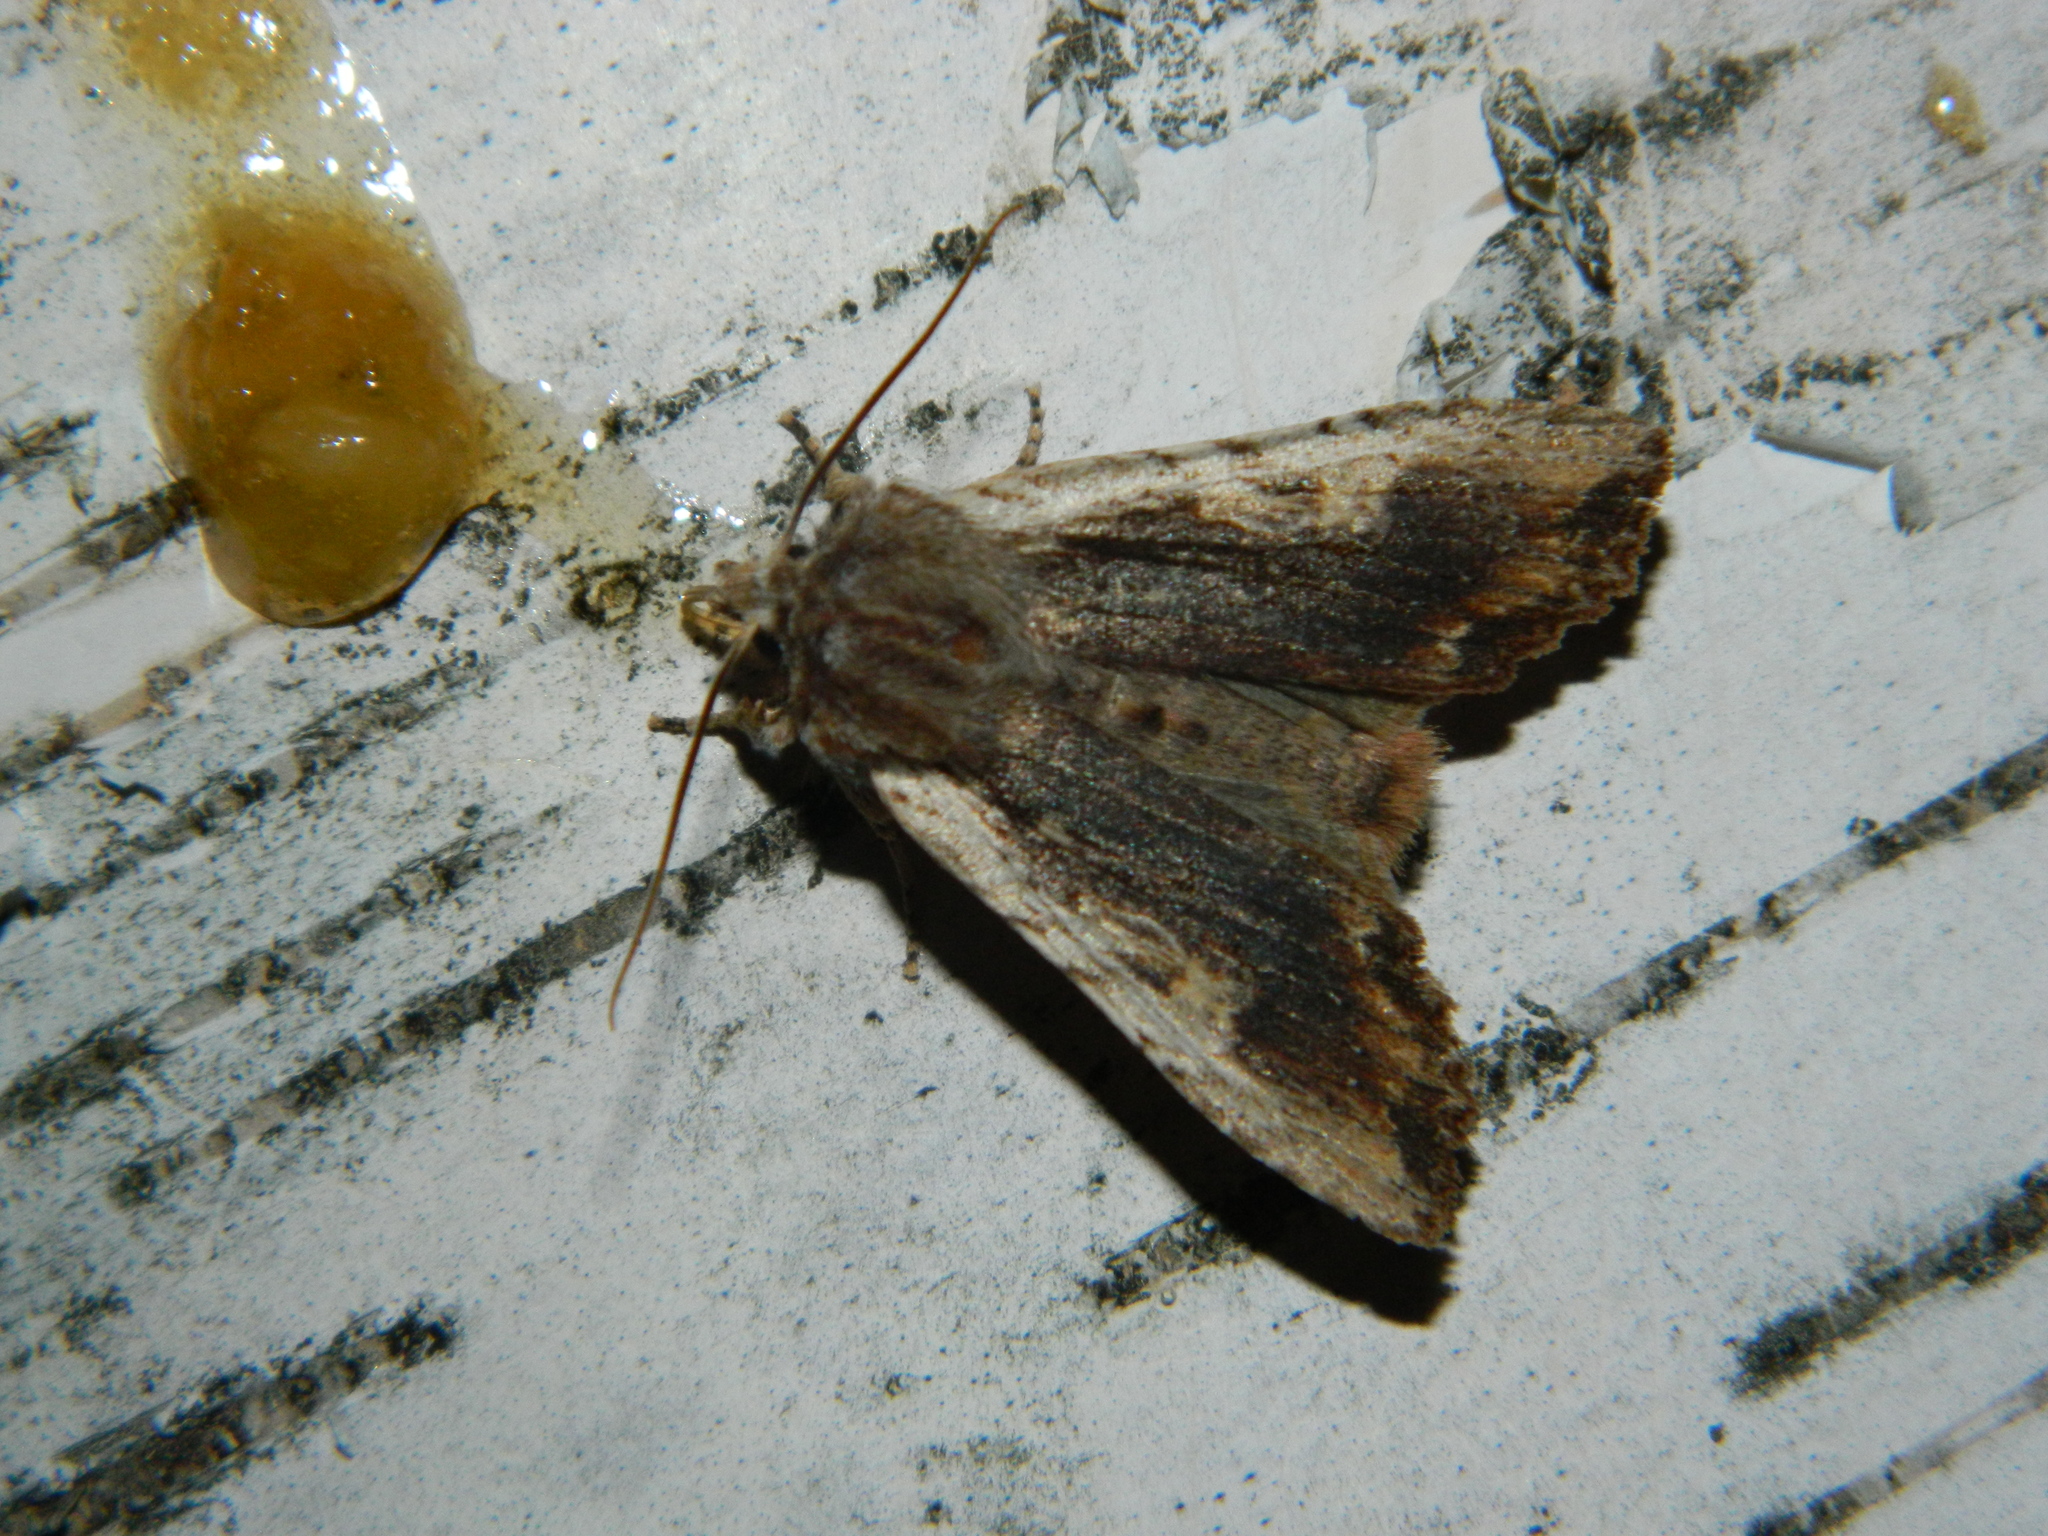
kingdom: Animalia
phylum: Arthropoda
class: Insecta
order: Lepidoptera
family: Noctuidae
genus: Lithophane
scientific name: Lithophane petulca
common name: Wanton pinion
